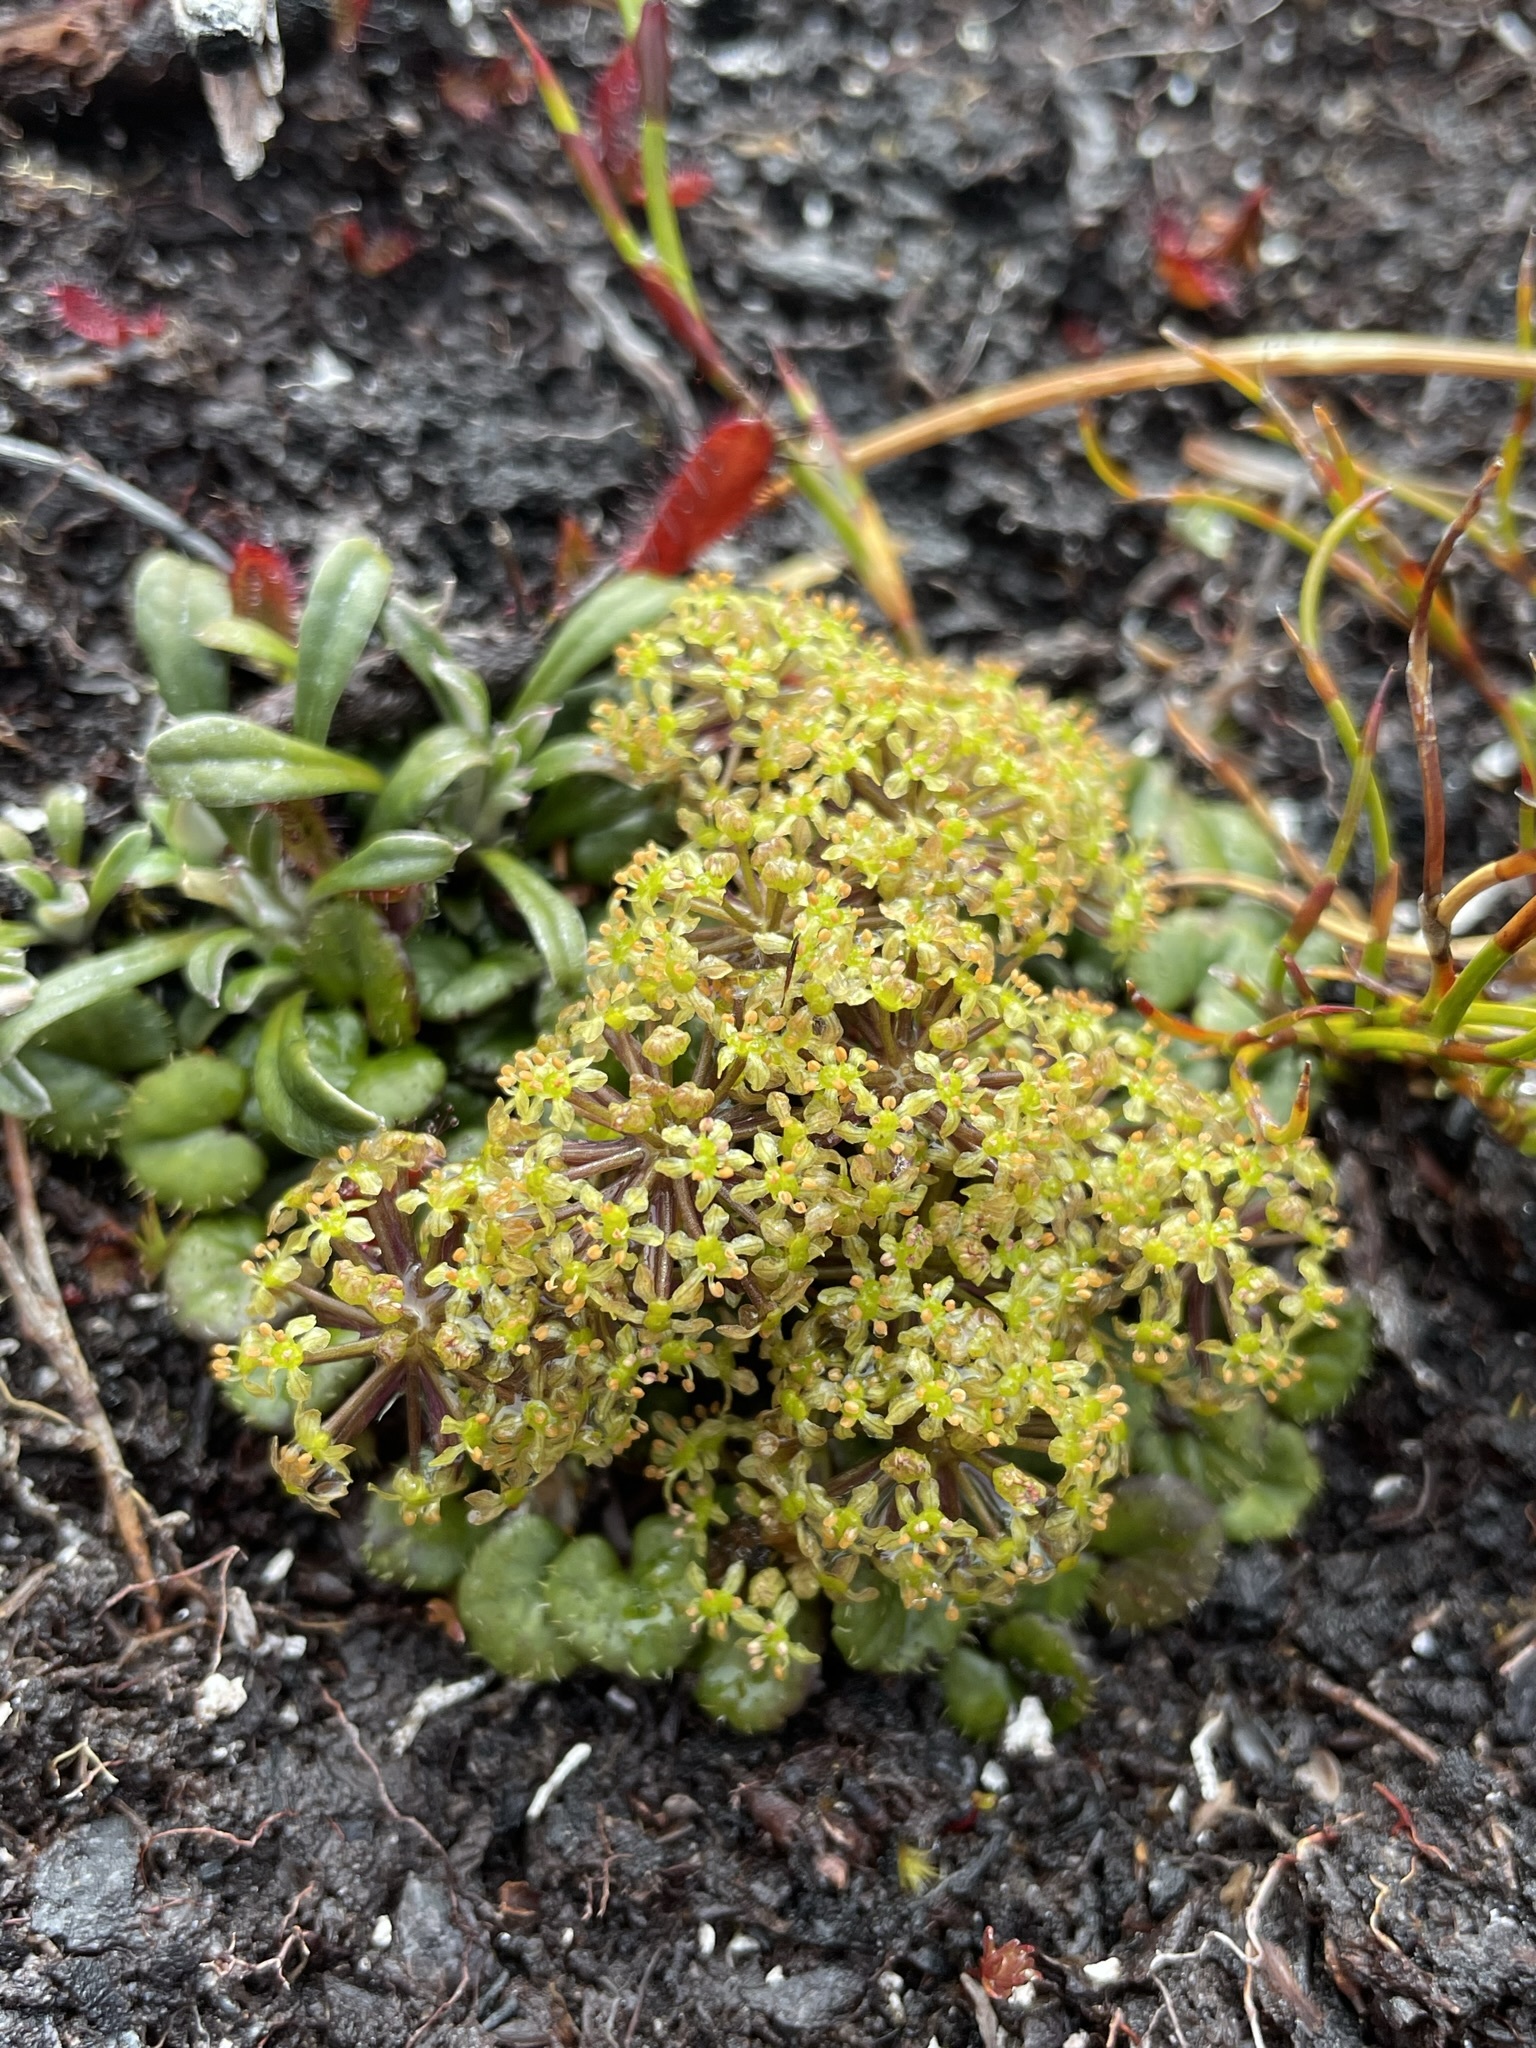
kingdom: Plantae
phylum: Tracheophyta
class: Magnoliopsida
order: Apiales
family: Apiaceae
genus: Diplaspis
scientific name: Diplaspis cordifolia
